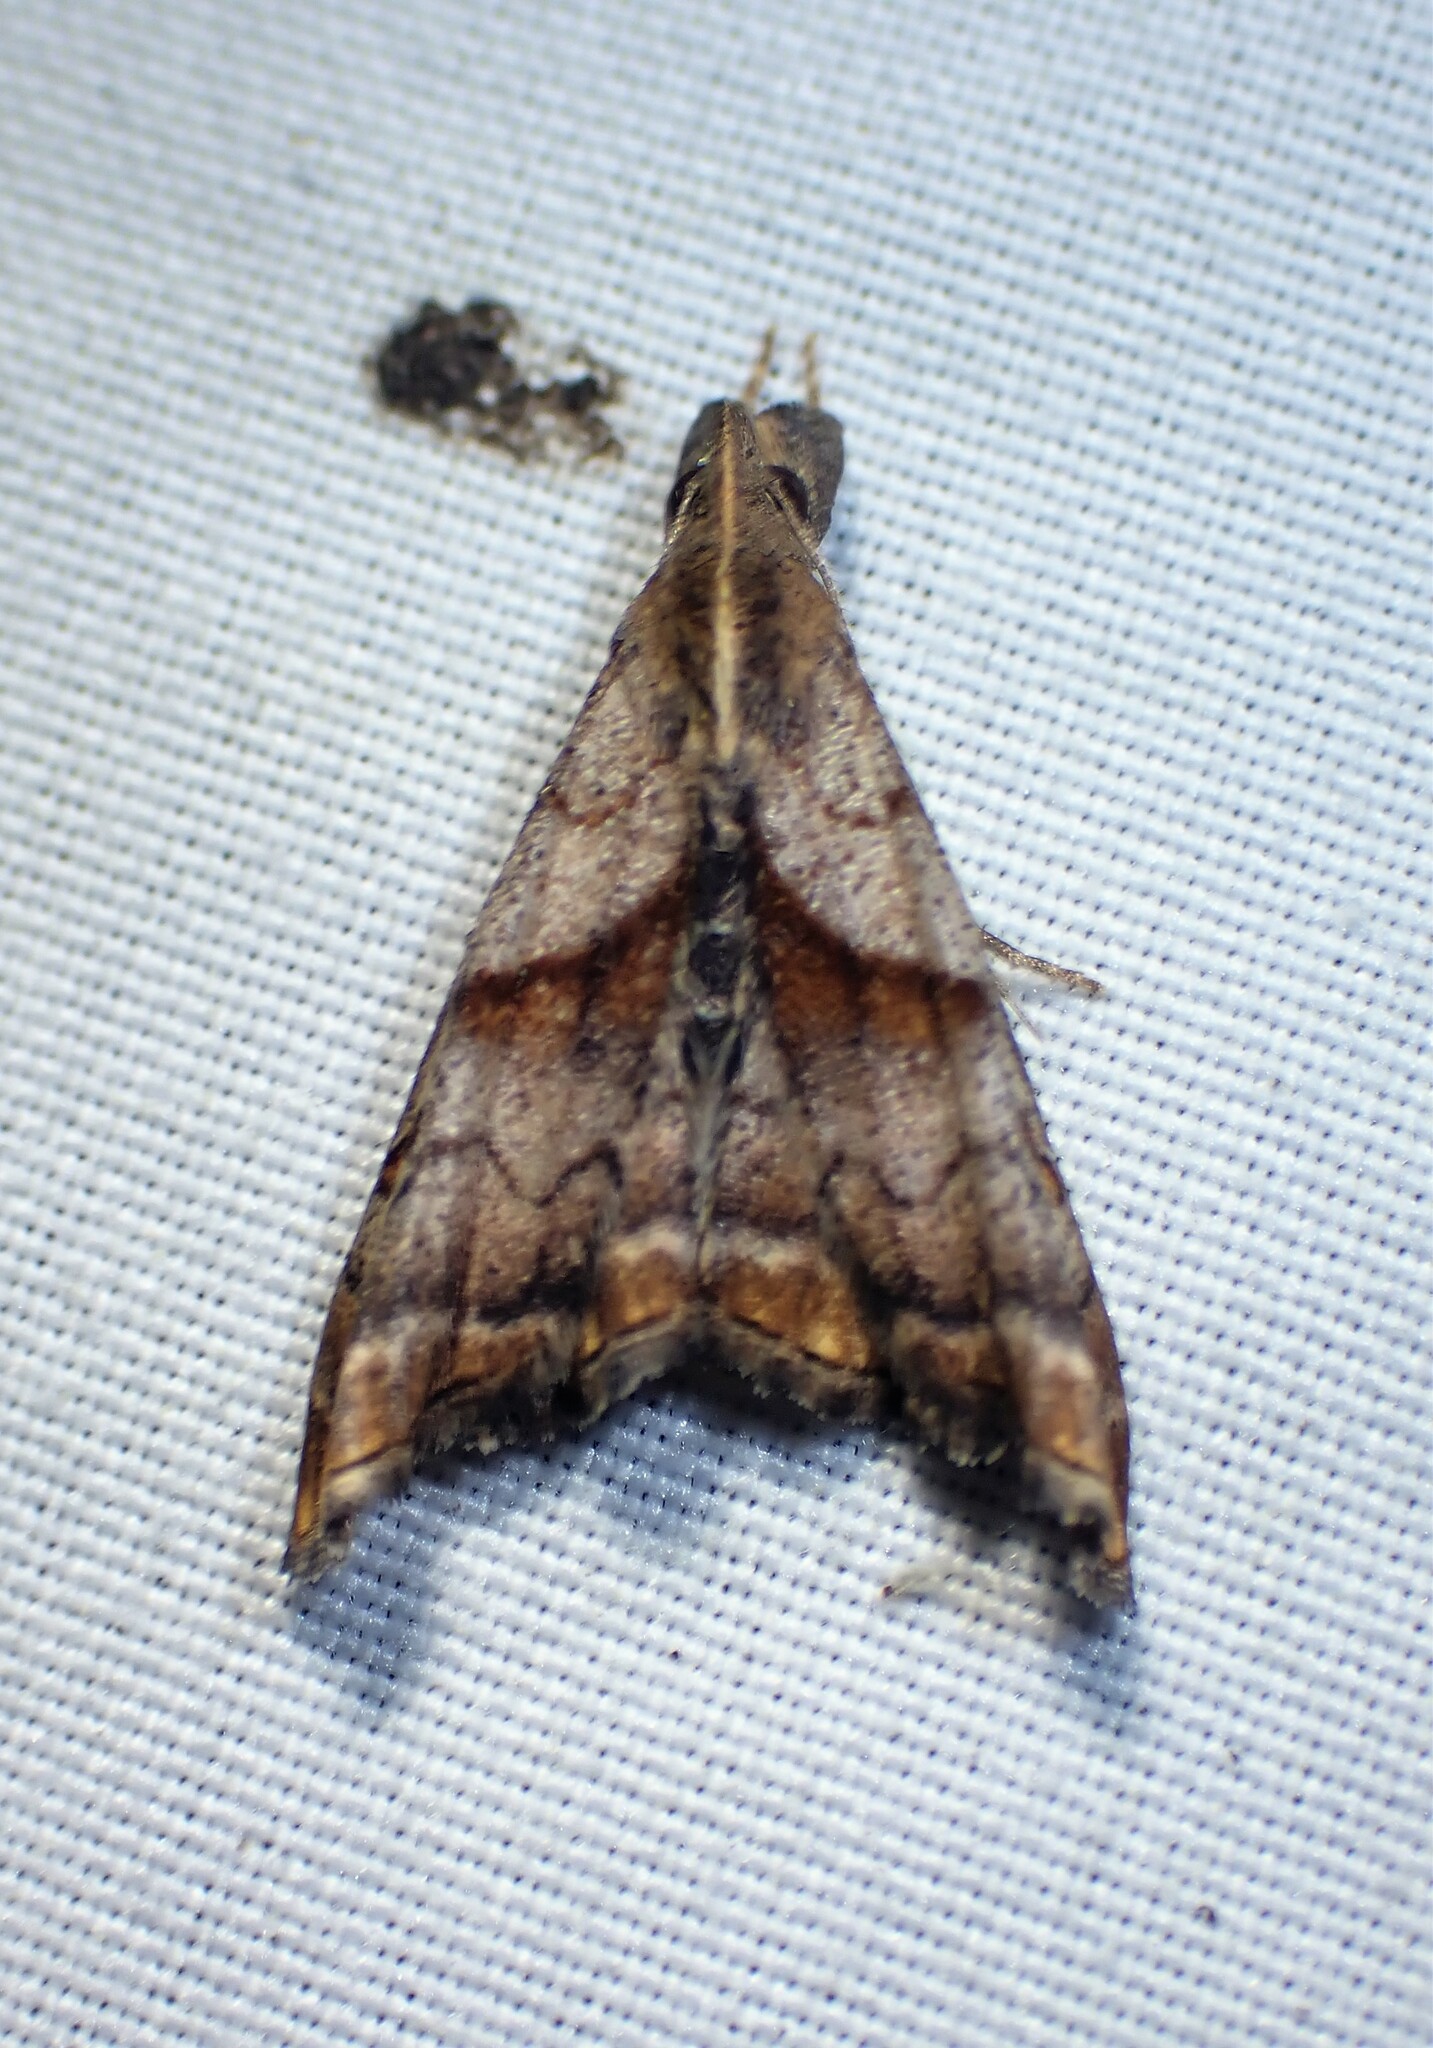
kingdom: Animalia
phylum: Arthropoda
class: Insecta
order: Lepidoptera
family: Erebidae
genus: Palthis
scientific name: Palthis angulalis
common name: Dark-spotted palthis moth
